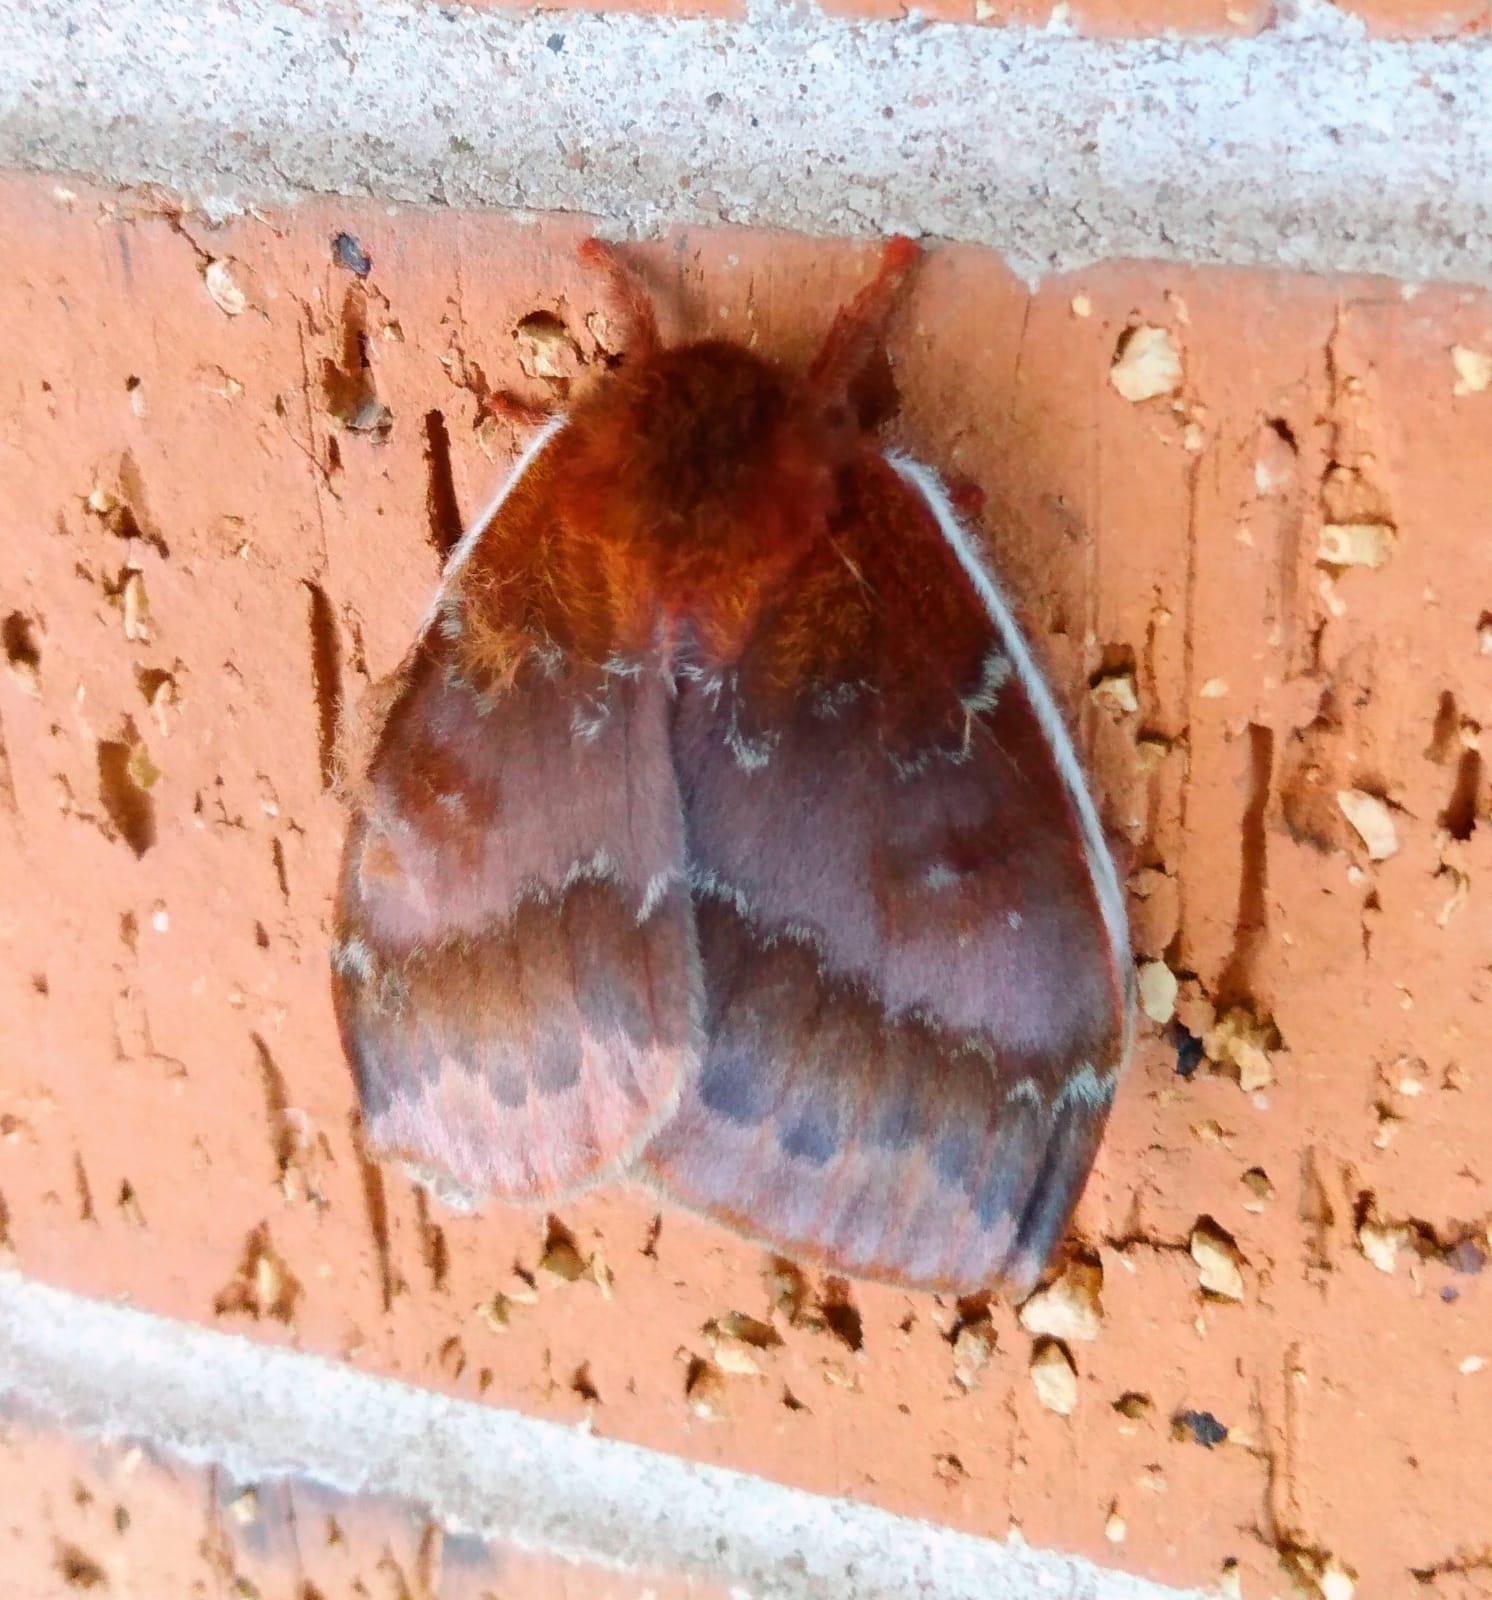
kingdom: Animalia
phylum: Arthropoda
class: Insecta
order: Lepidoptera
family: Saturniidae
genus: Automeris
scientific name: Automeris io
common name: Io moth
